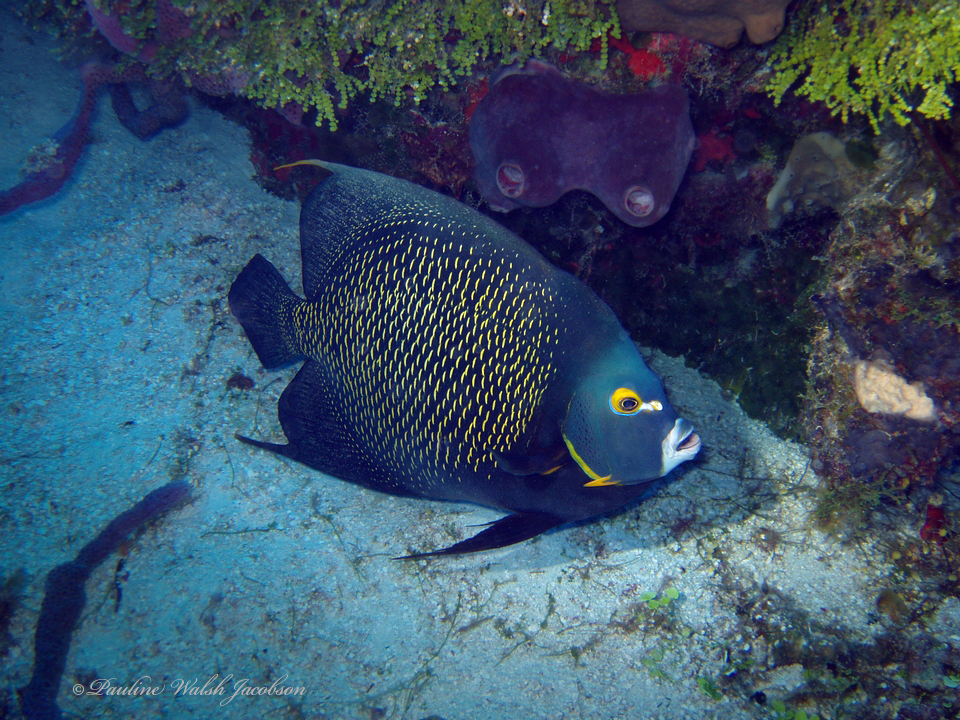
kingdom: Animalia
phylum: Chordata
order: Perciformes
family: Pomacanthidae
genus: Pomacanthus
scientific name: Pomacanthus paru
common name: French angelfish
